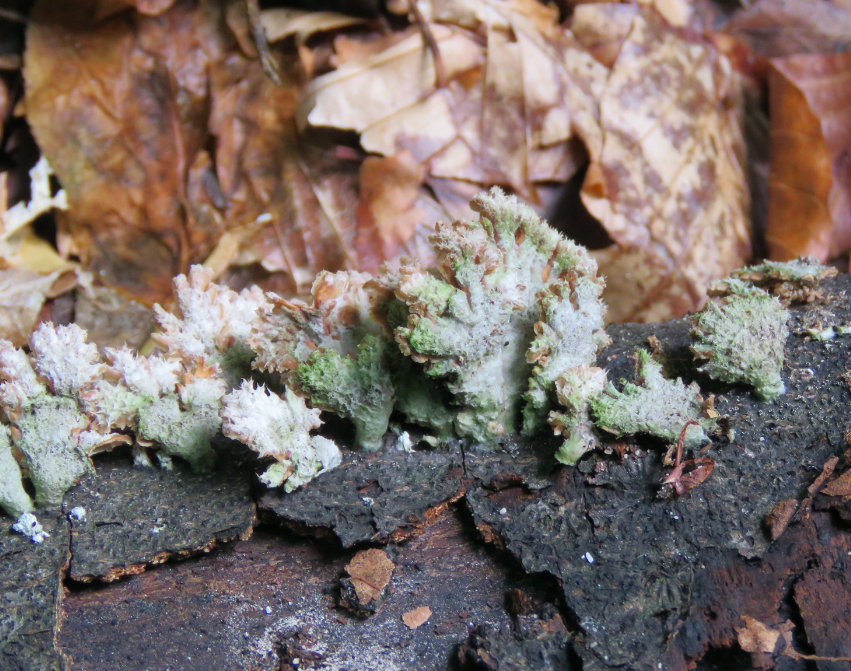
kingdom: Fungi
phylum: Basidiomycota
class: Agaricomycetes
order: Agaricales
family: Schizophyllaceae
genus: Schizophyllum
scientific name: Schizophyllum commune
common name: Common porecrust
